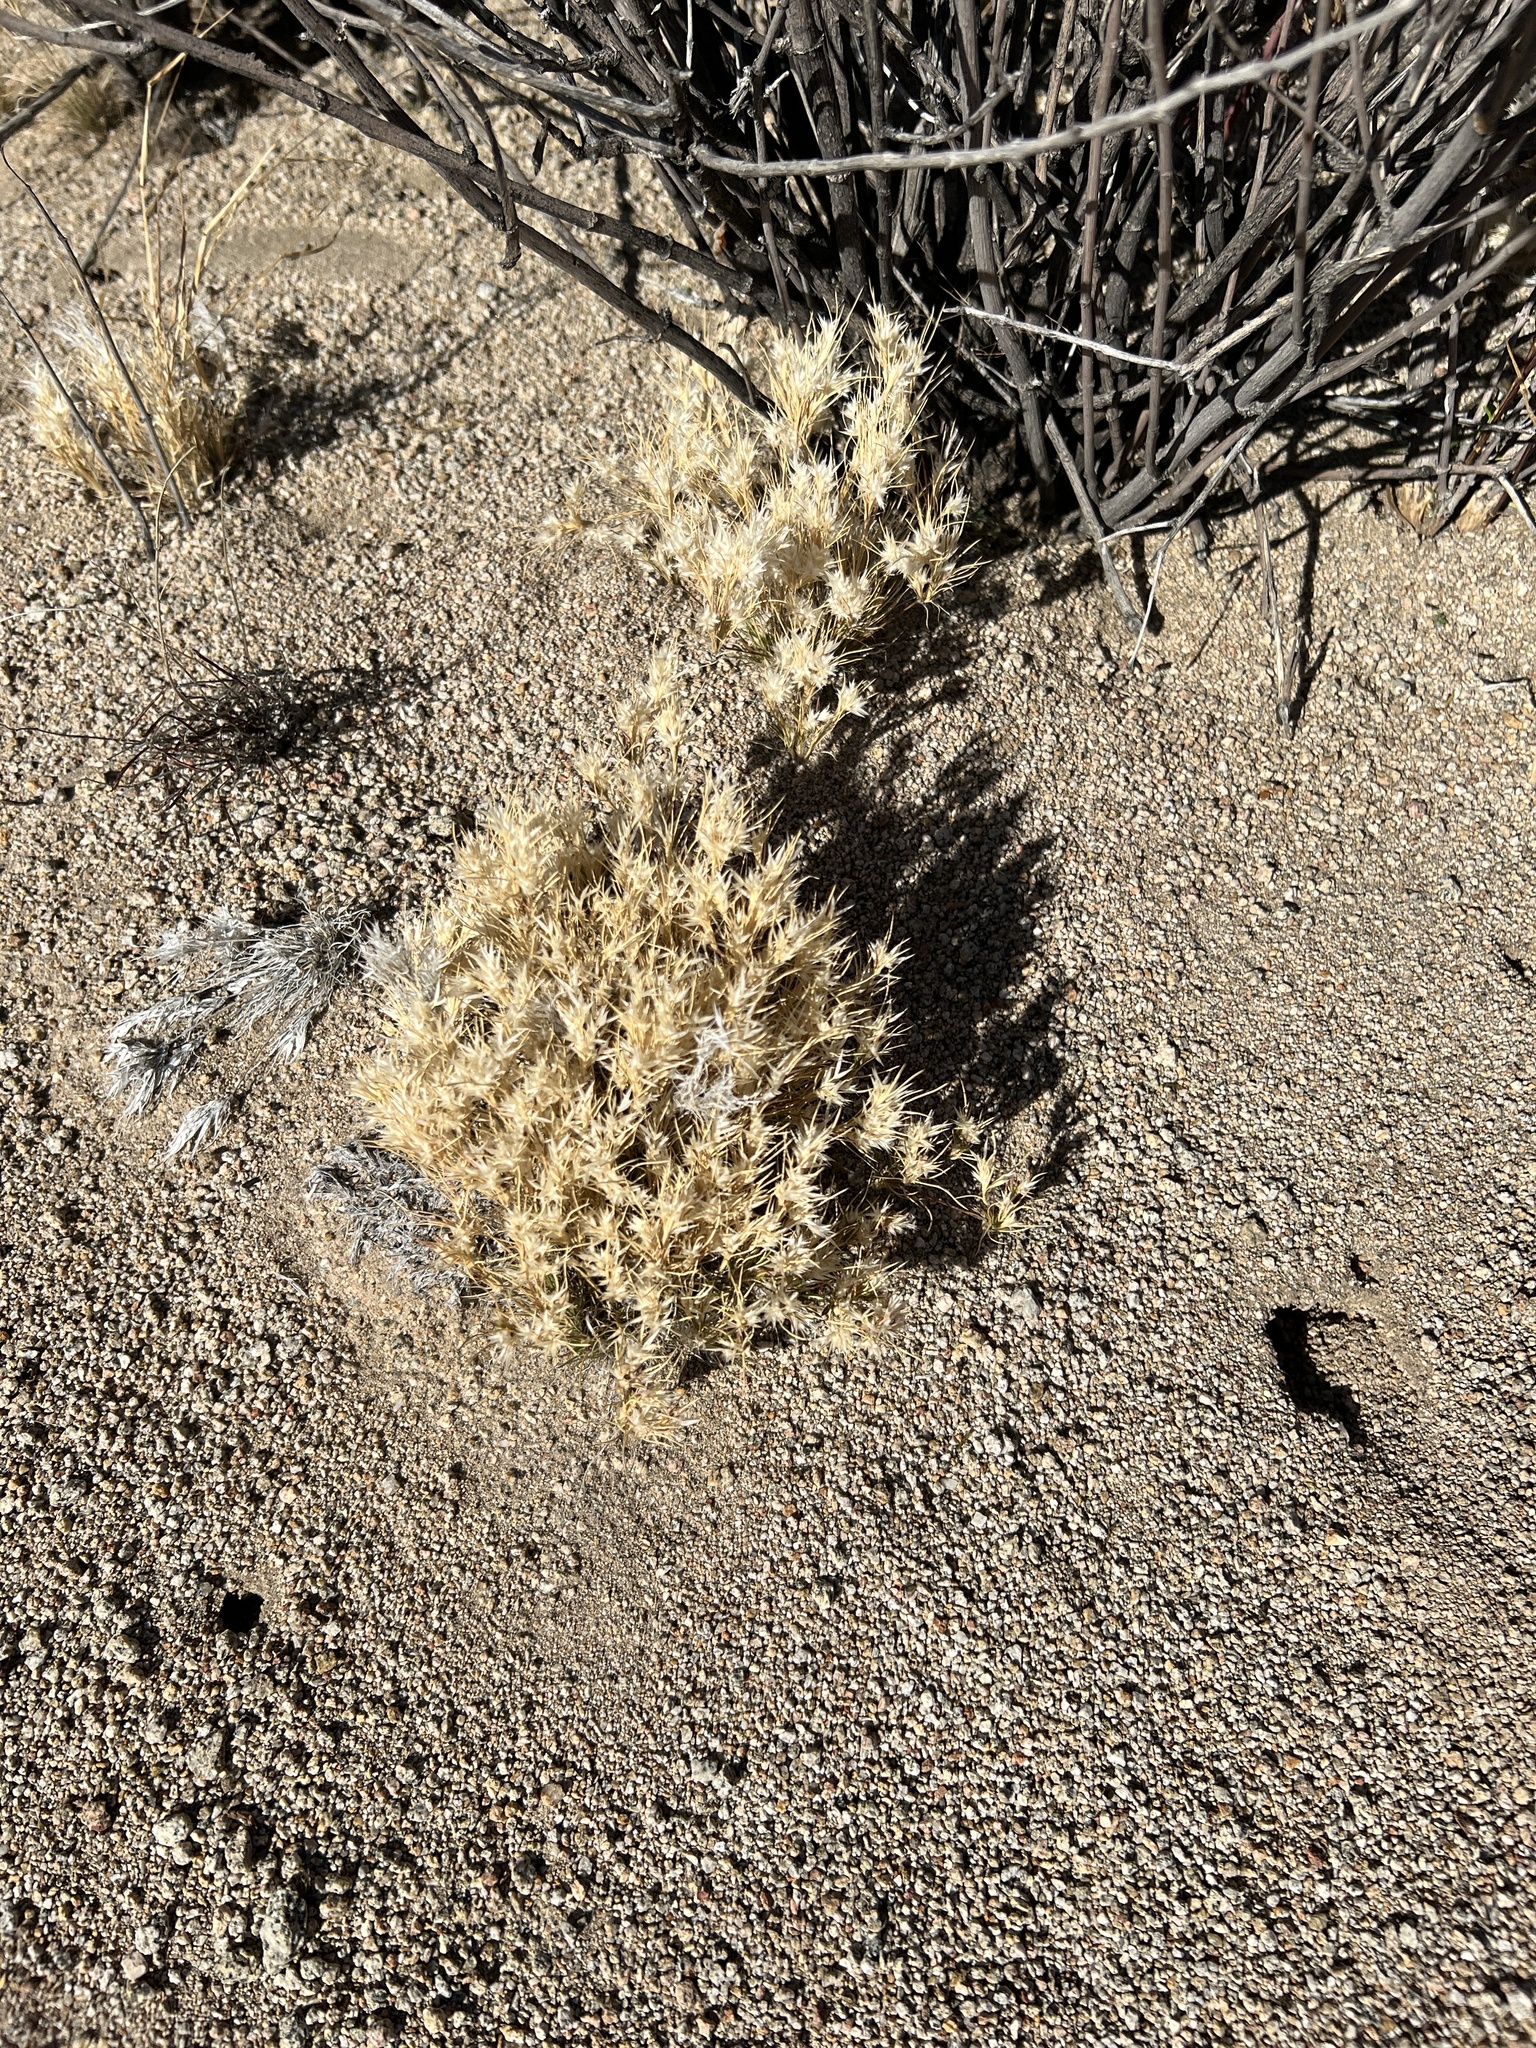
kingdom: Plantae
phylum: Tracheophyta
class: Liliopsida
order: Poales
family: Poaceae
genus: Dasyochloa
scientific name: Dasyochloa pulchella
